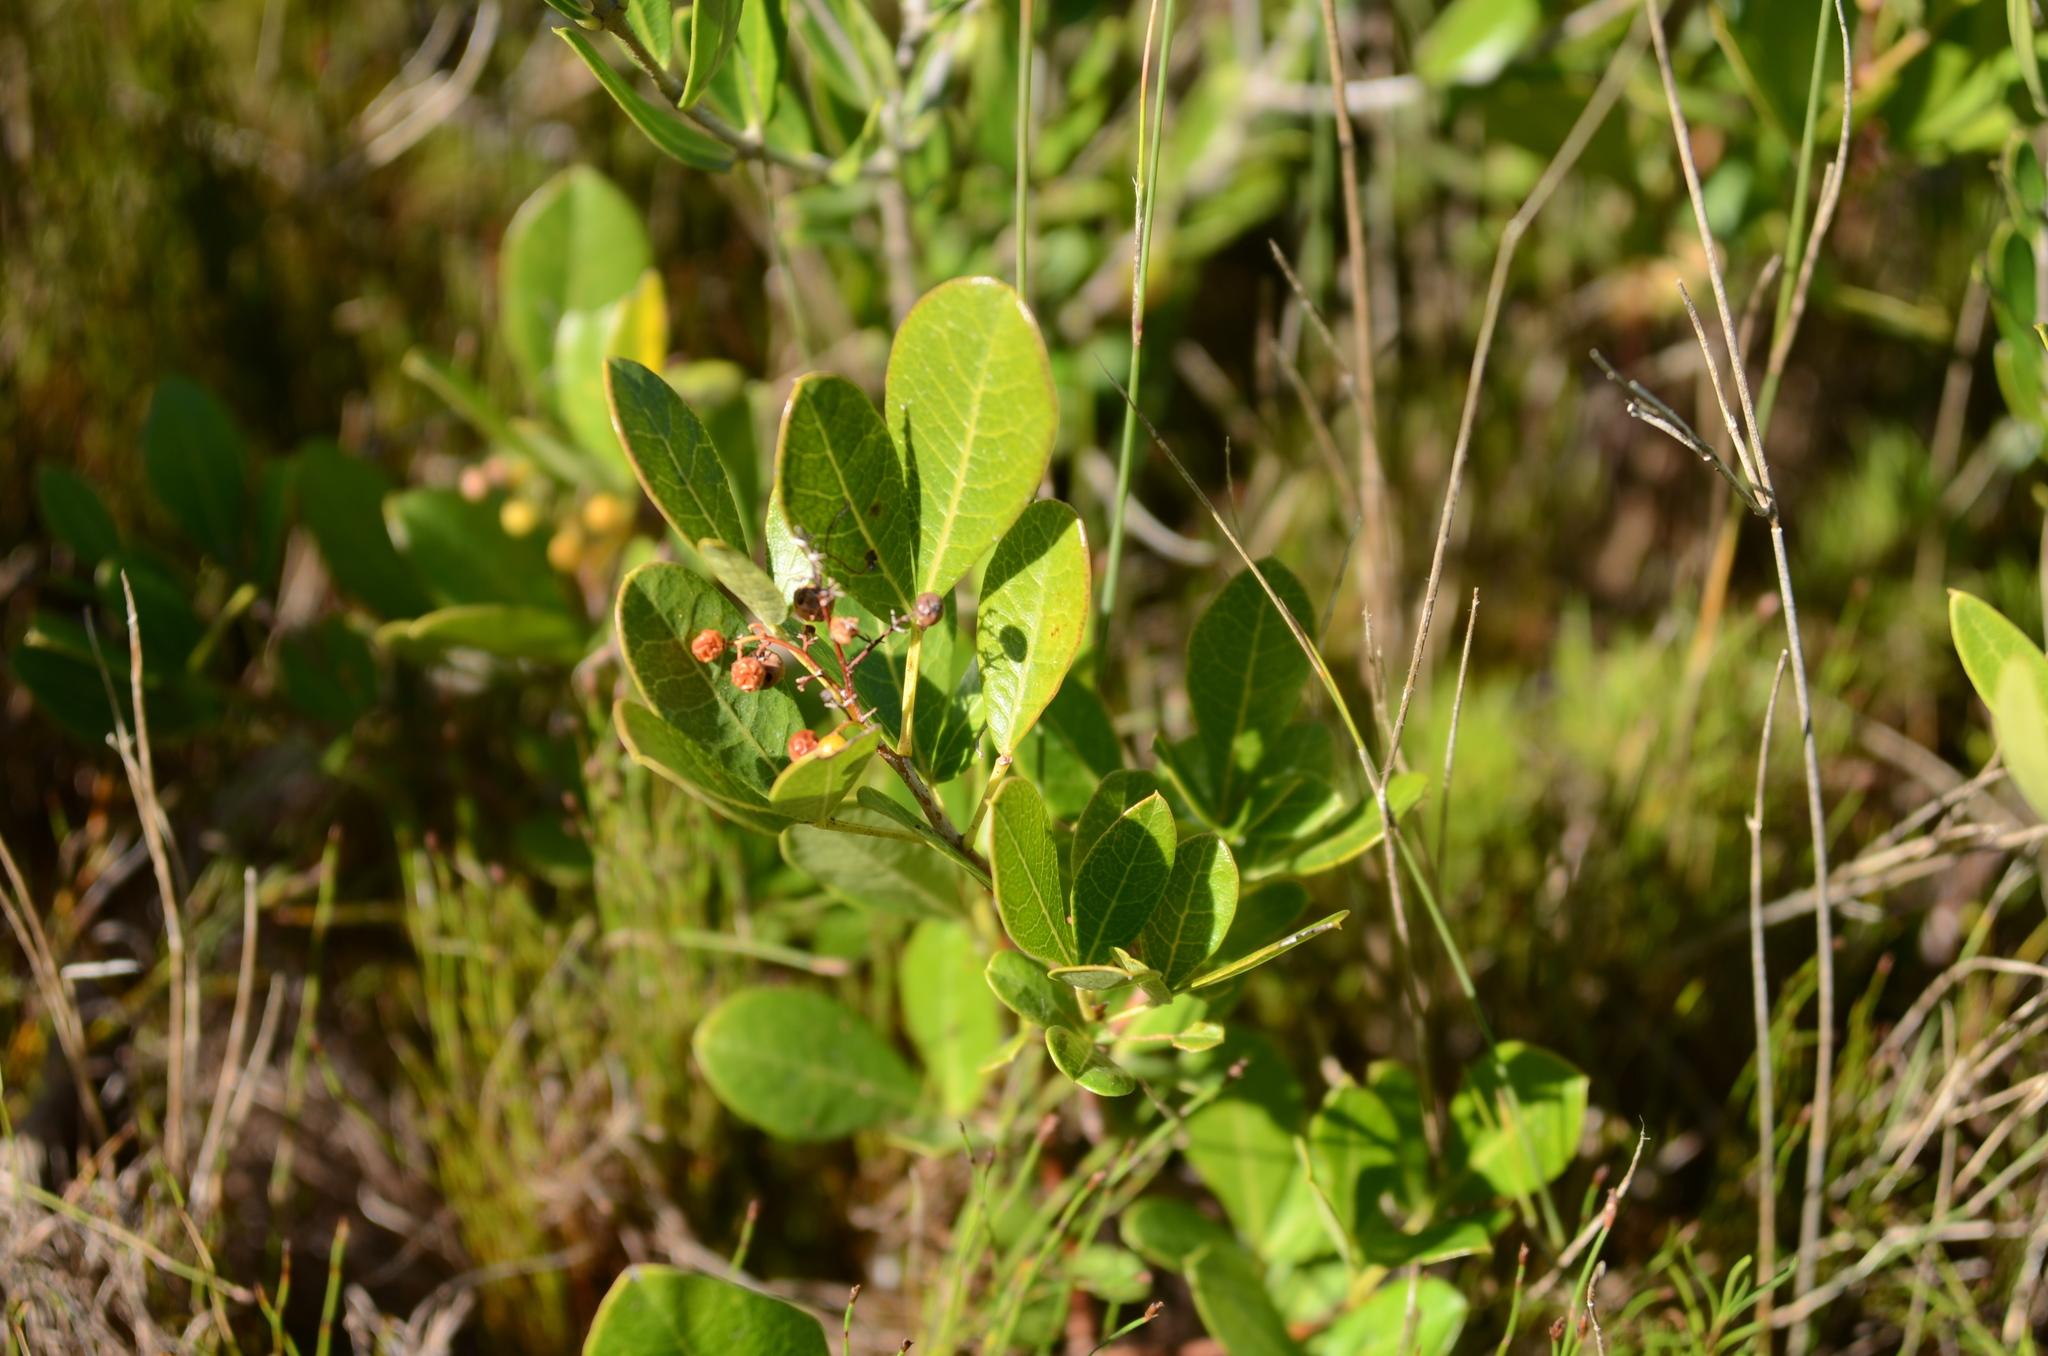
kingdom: Plantae
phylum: Tracheophyta
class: Magnoliopsida
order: Sapindales
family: Anacardiaceae
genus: Searsia
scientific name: Searsia laevigata
